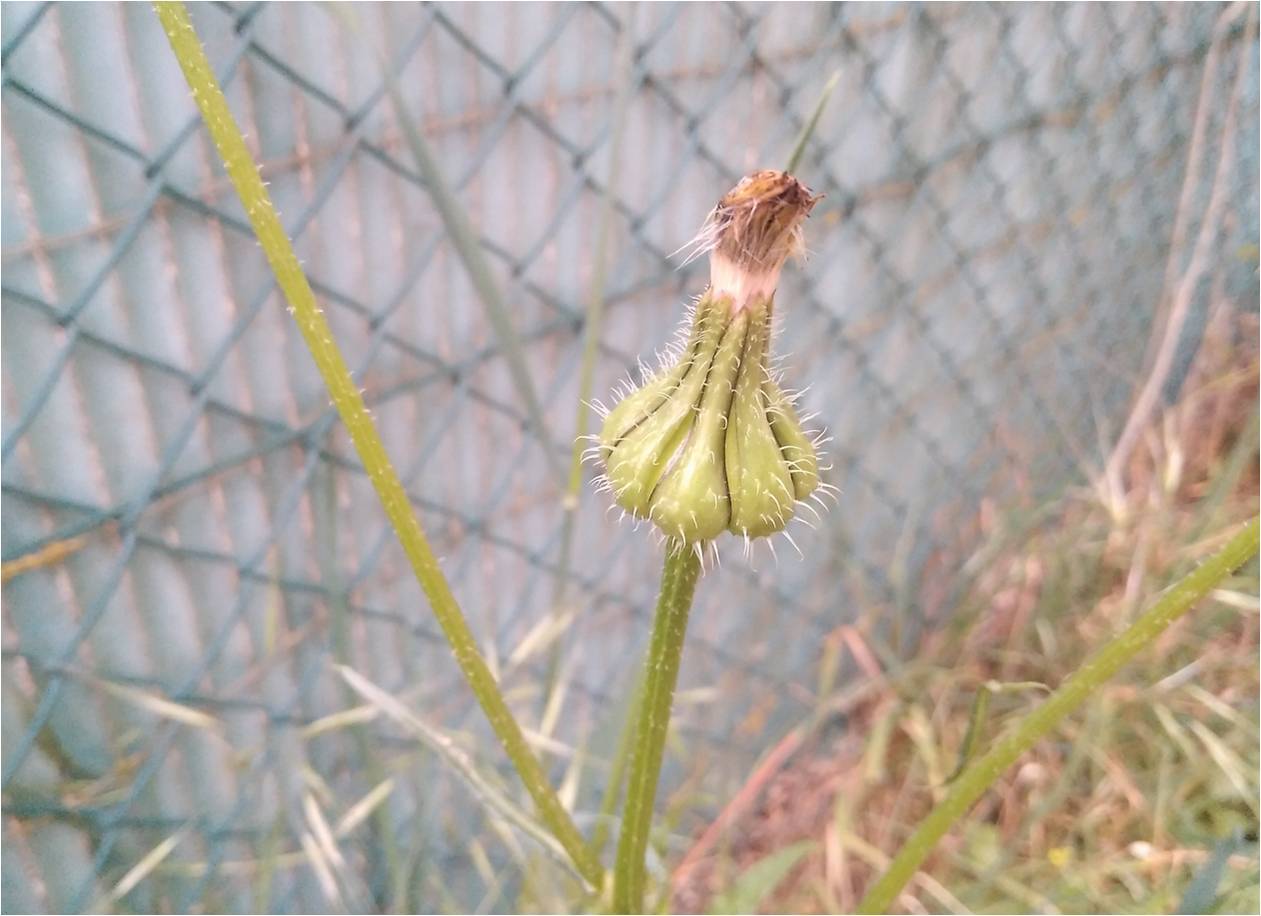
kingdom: Plantae
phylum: Tracheophyta
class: Magnoliopsida
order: Asterales
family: Asteraceae
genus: Urospermum
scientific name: Urospermum picroides
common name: False hawkbit
